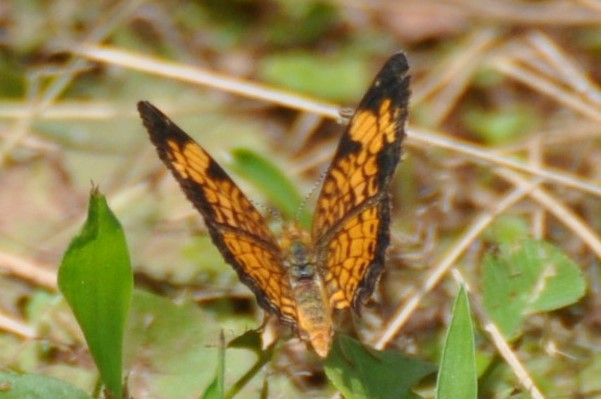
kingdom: Animalia
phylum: Arthropoda
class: Insecta
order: Lepidoptera
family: Nymphalidae
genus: Phyciodes
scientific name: Phyciodes tharos
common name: Pearl crescent
